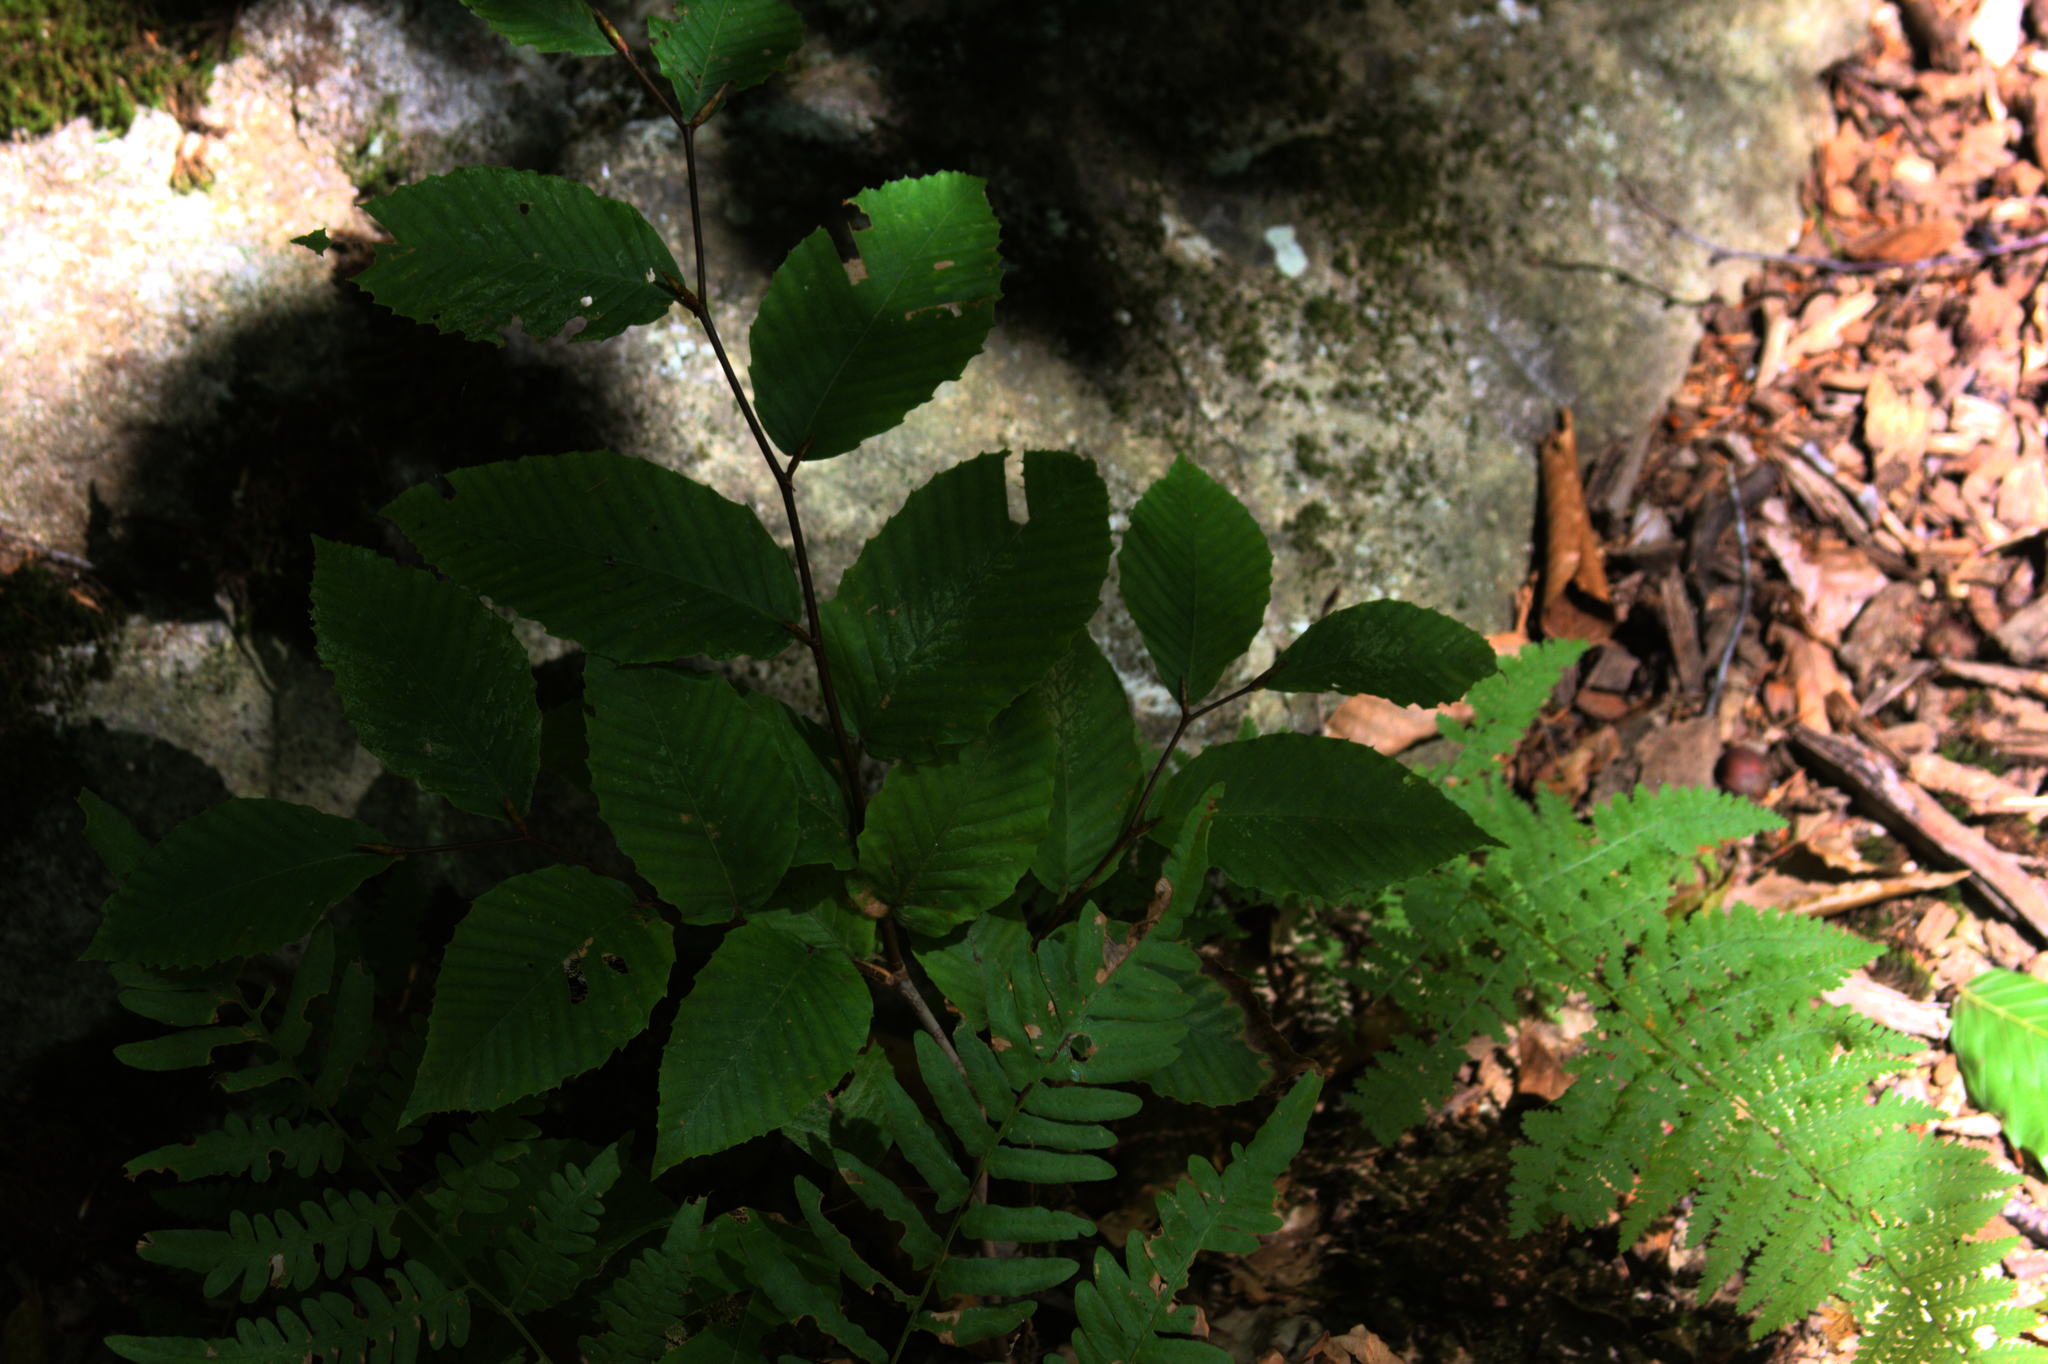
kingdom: Plantae
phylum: Tracheophyta
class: Magnoliopsida
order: Fagales
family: Fagaceae
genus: Fagus
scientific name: Fagus grandifolia
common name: American beech
